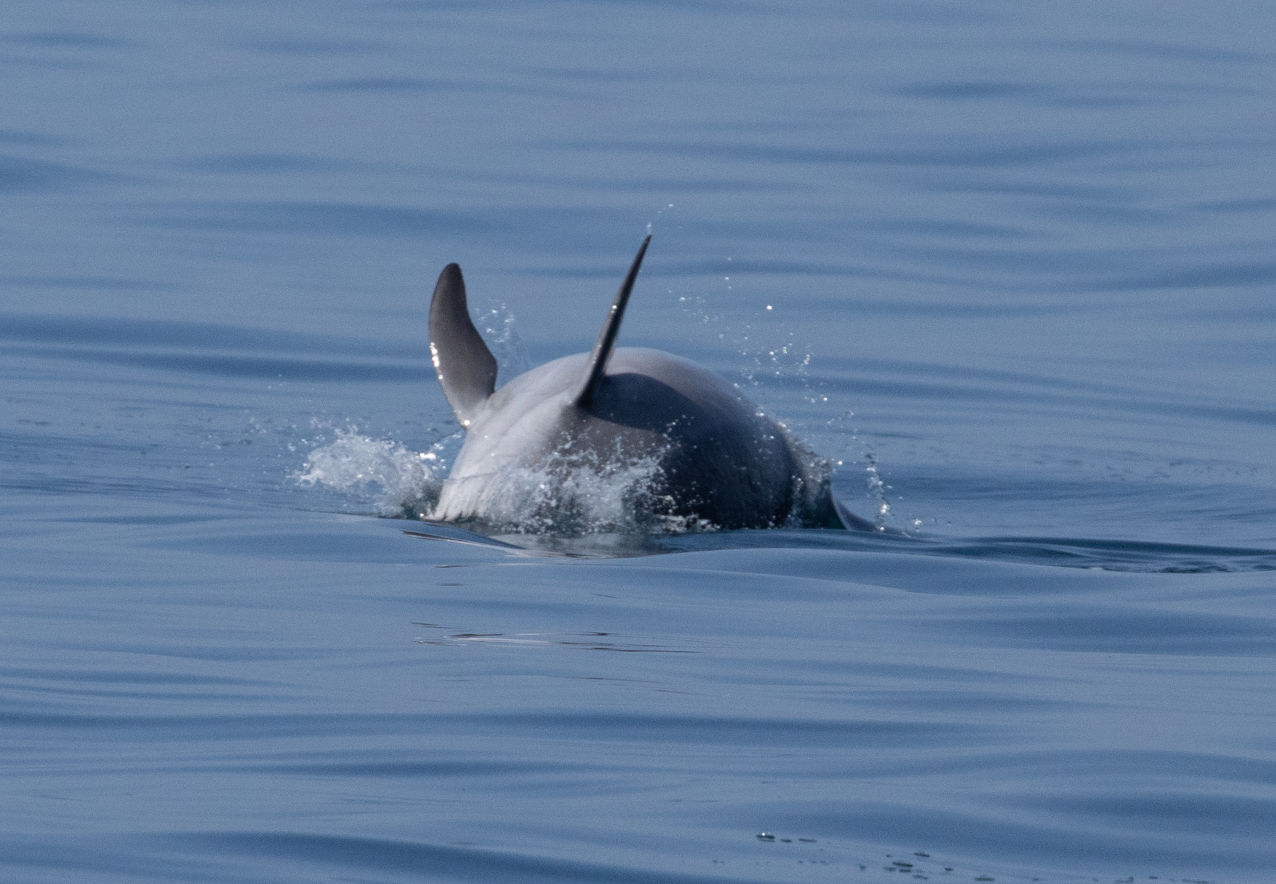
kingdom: Animalia
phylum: Chordata
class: Mammalia
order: Cetacea
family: Delphinidae
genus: Tursiops
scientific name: Tursiops truncatus
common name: Bottlenose dolphin
